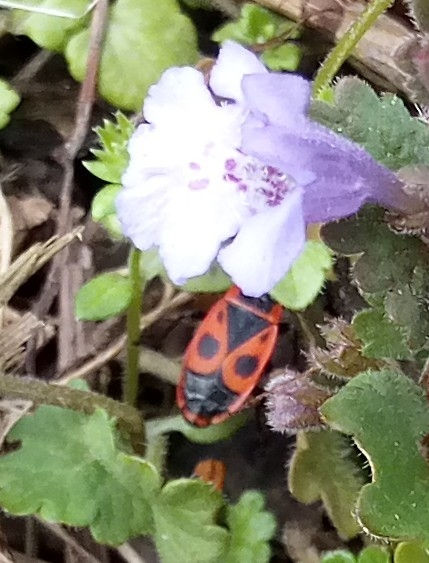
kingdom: Animalia
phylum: Arthropoda
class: Insecta
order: Hemiptera
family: Pyrrhocoridae
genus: Pyrrhocoris
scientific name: Pyrrhocoris apterus
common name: Firebug
